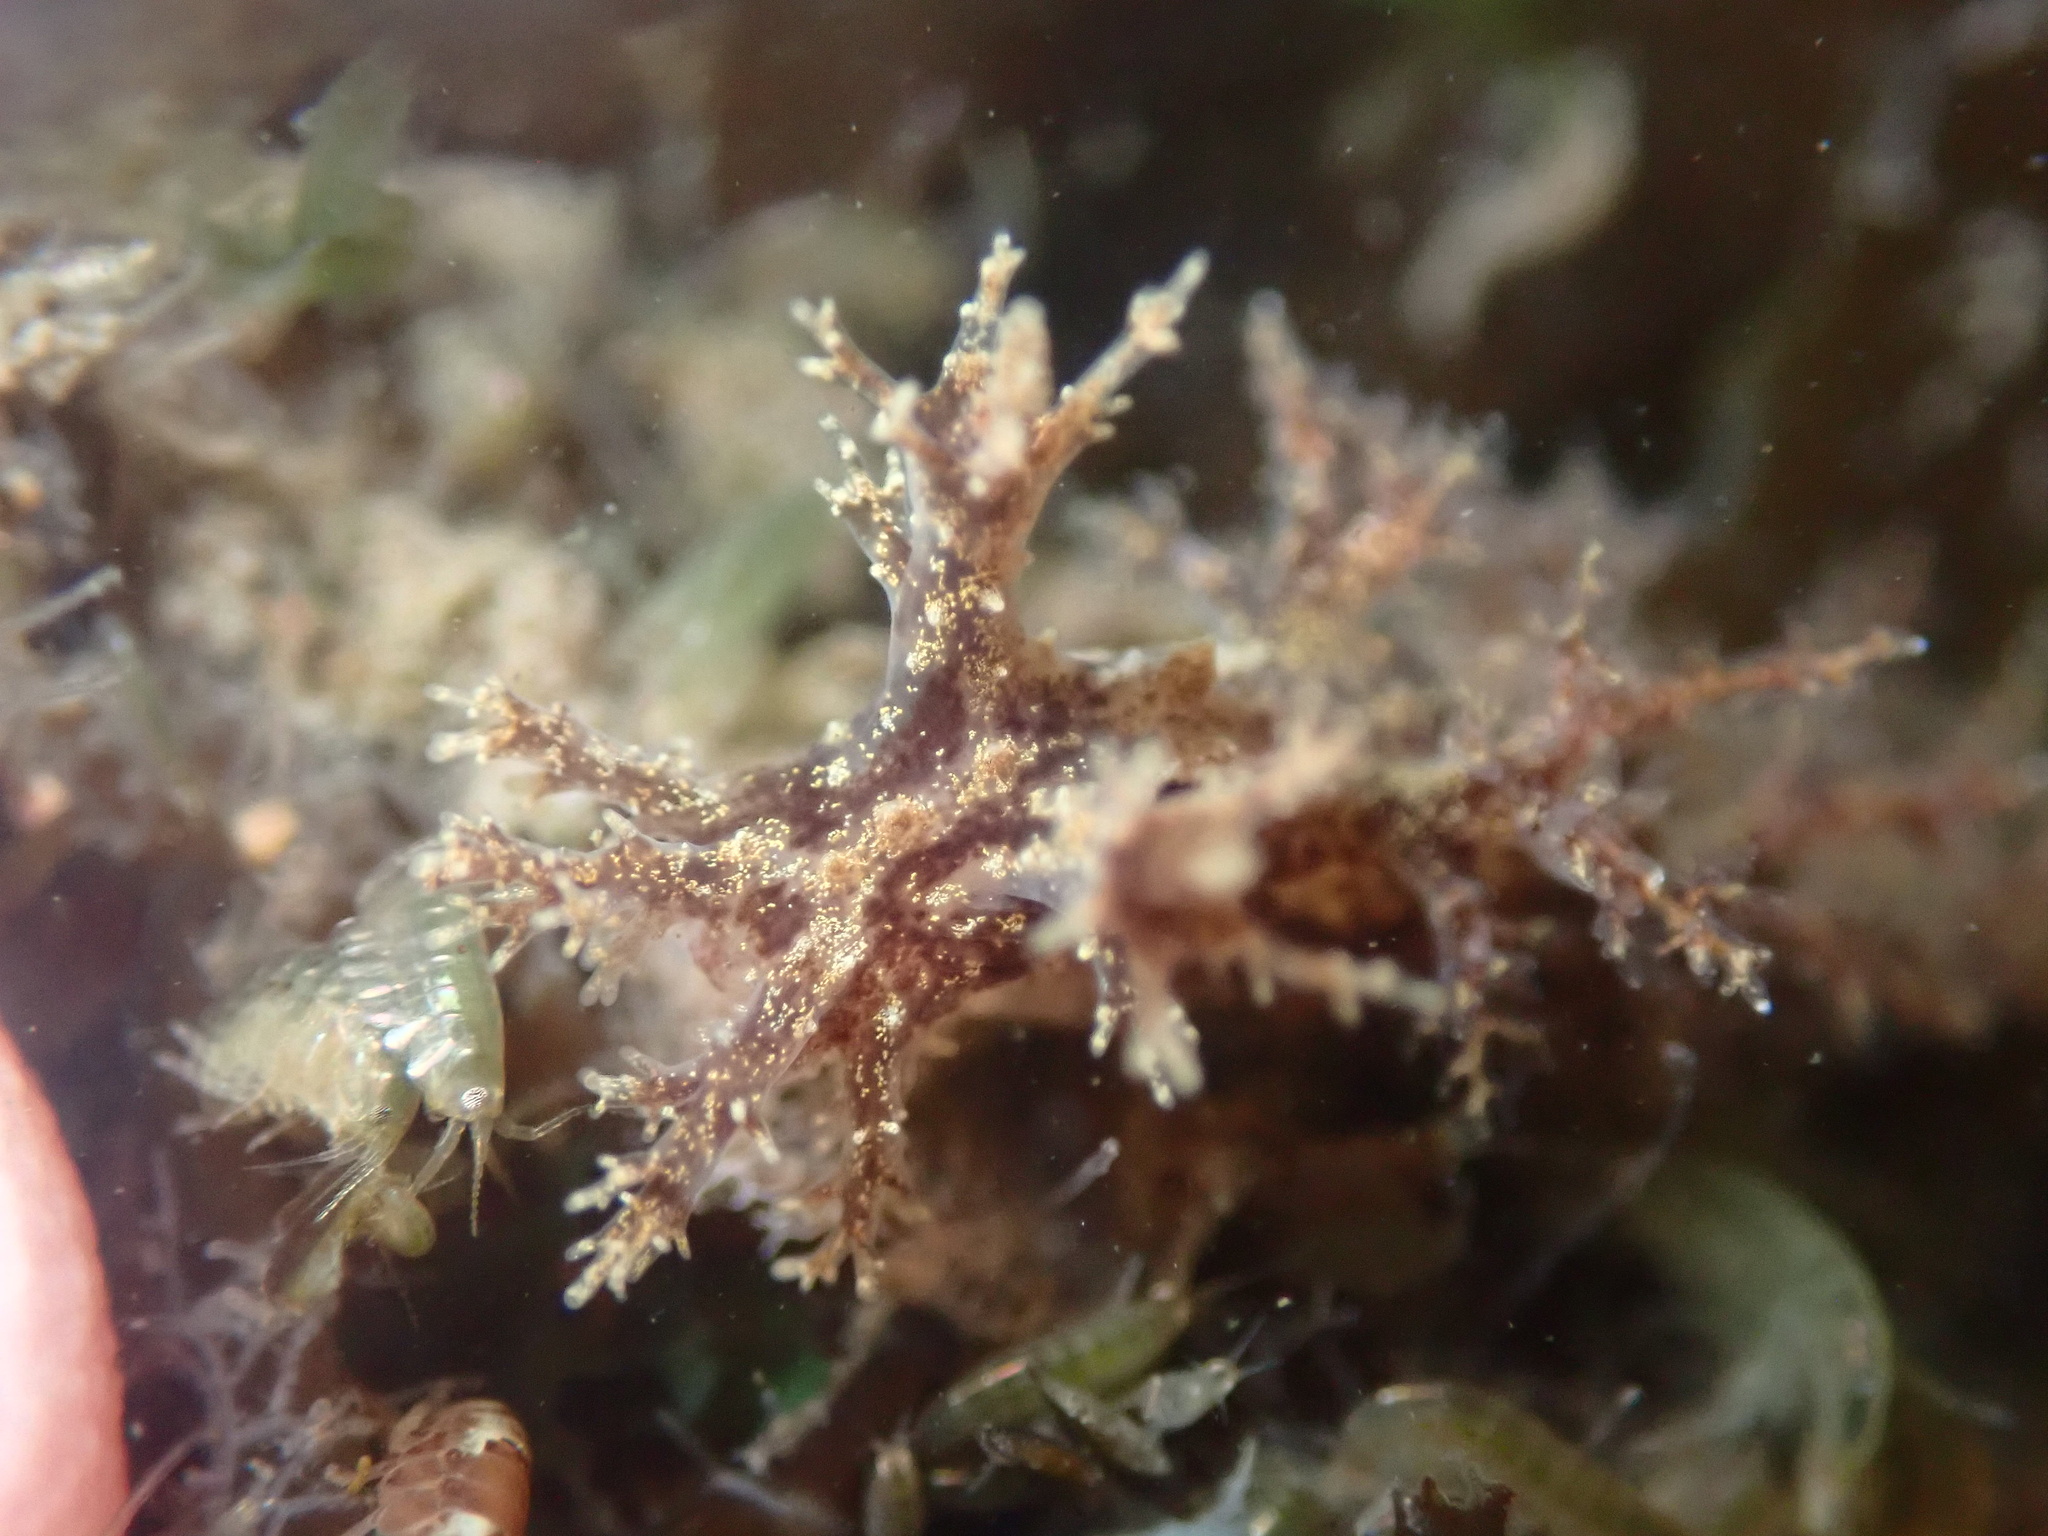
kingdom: Animalia
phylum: Mollusca
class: Gastropoda
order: Nudibranchia
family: Dendronotidae
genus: Dendronotus
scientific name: Dendronotus venustus
